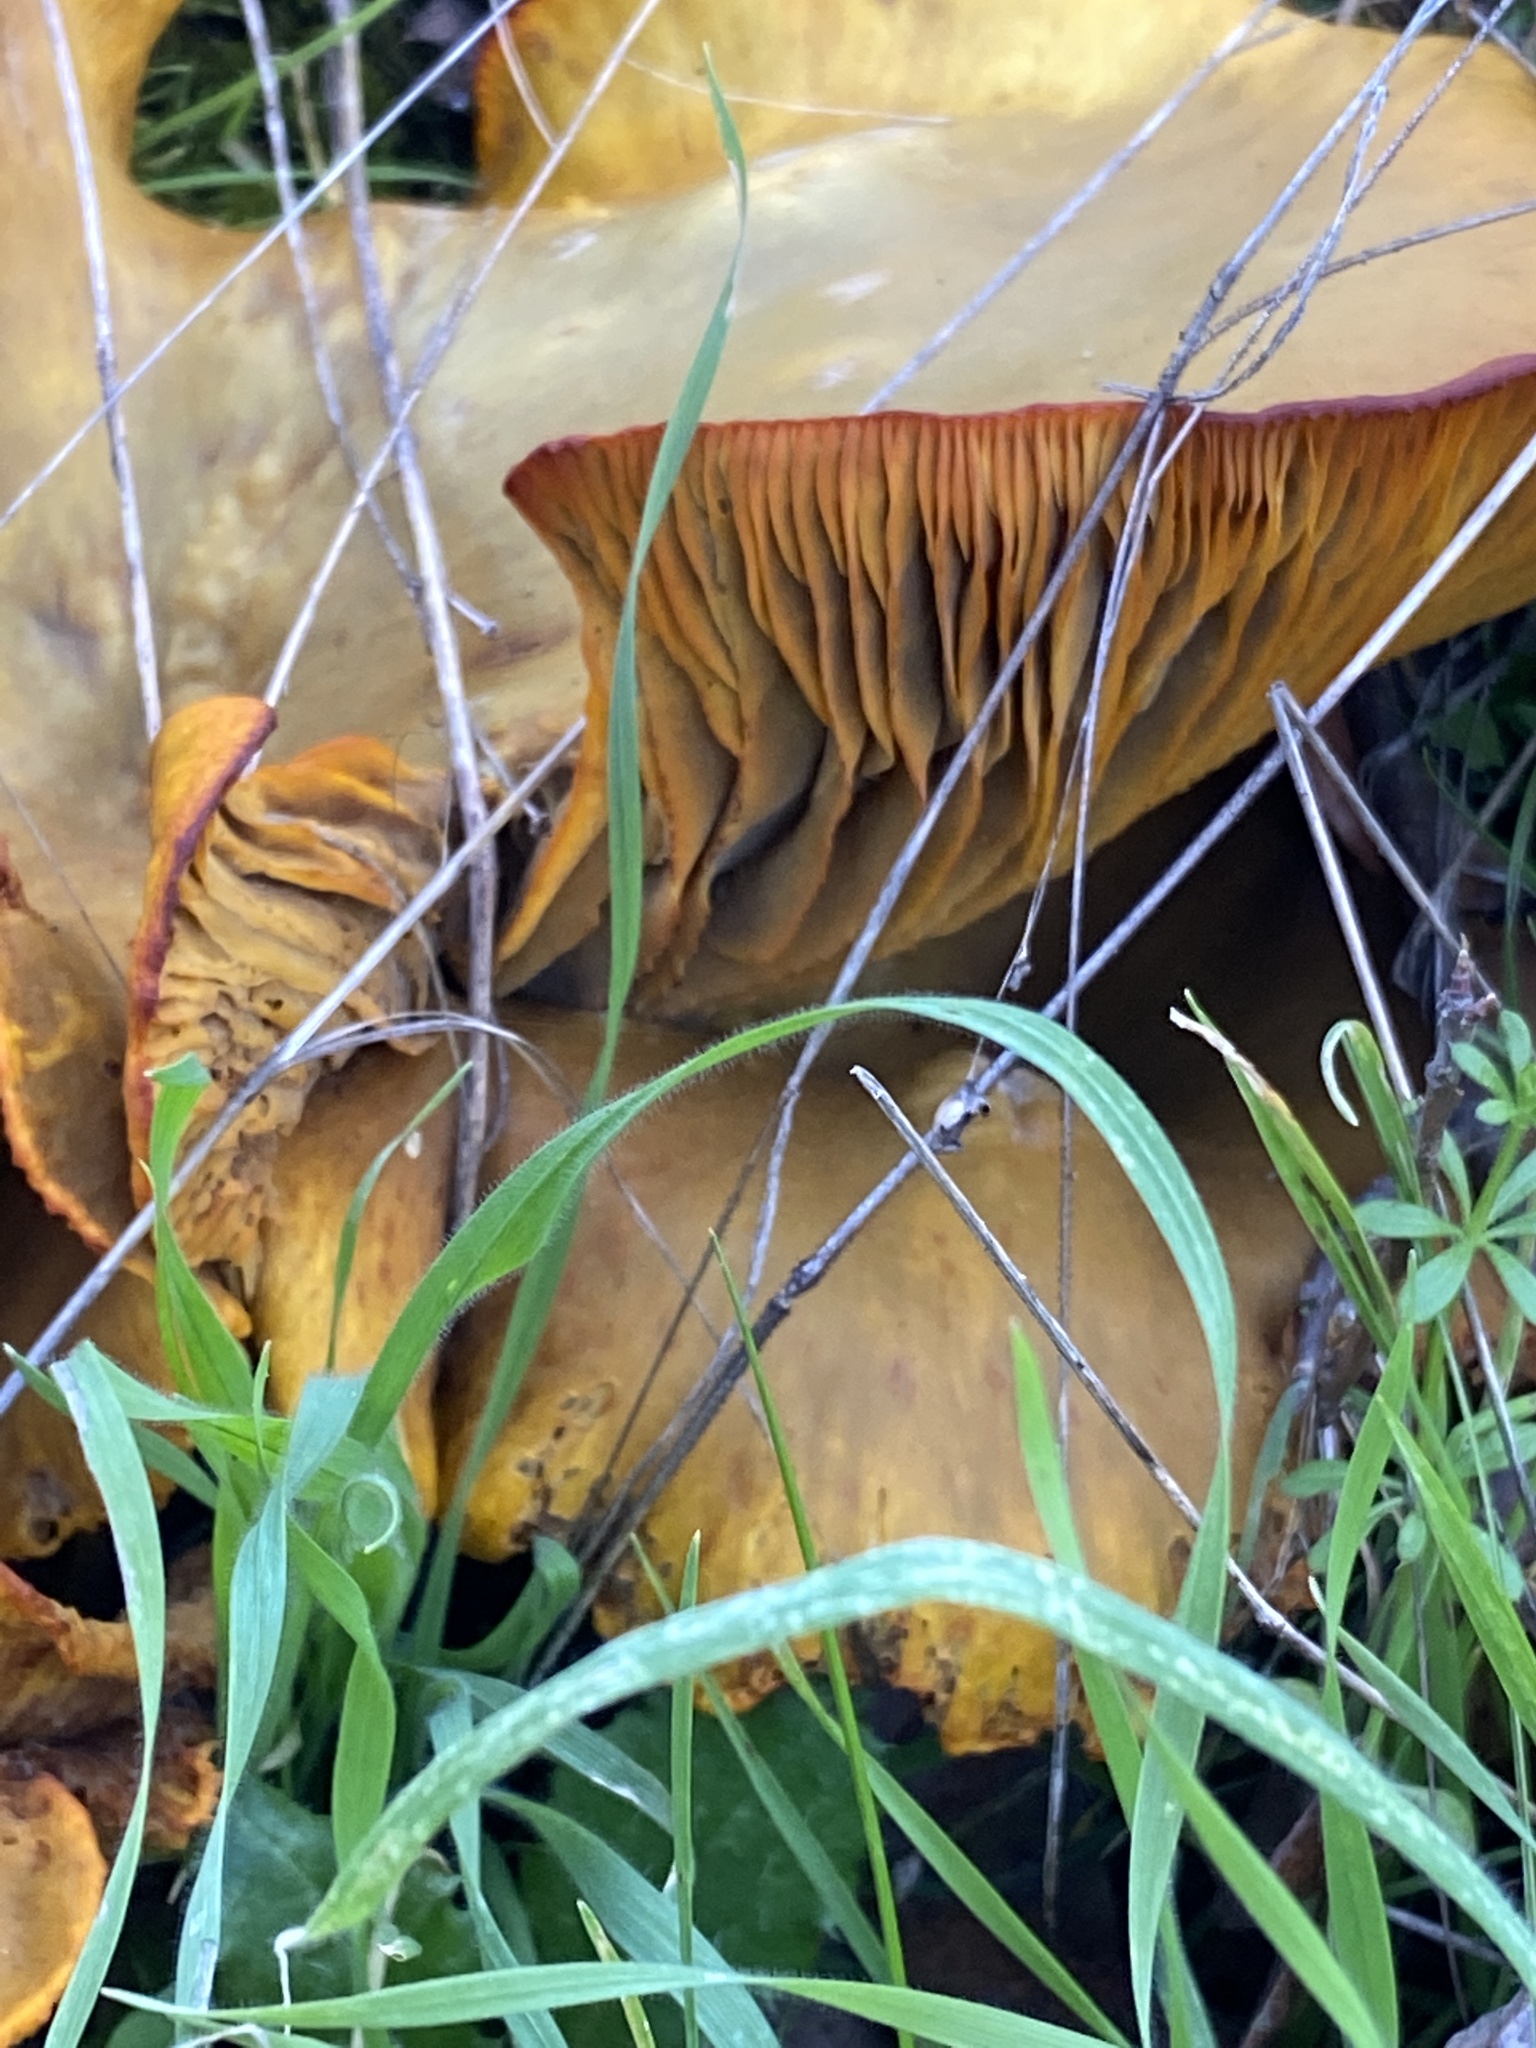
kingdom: Fungi
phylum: Basidiomycota
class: Agaricomycetes
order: Agaricales
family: Omphalotaceae
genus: Omphalotus
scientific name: Omphalotus olivascens
